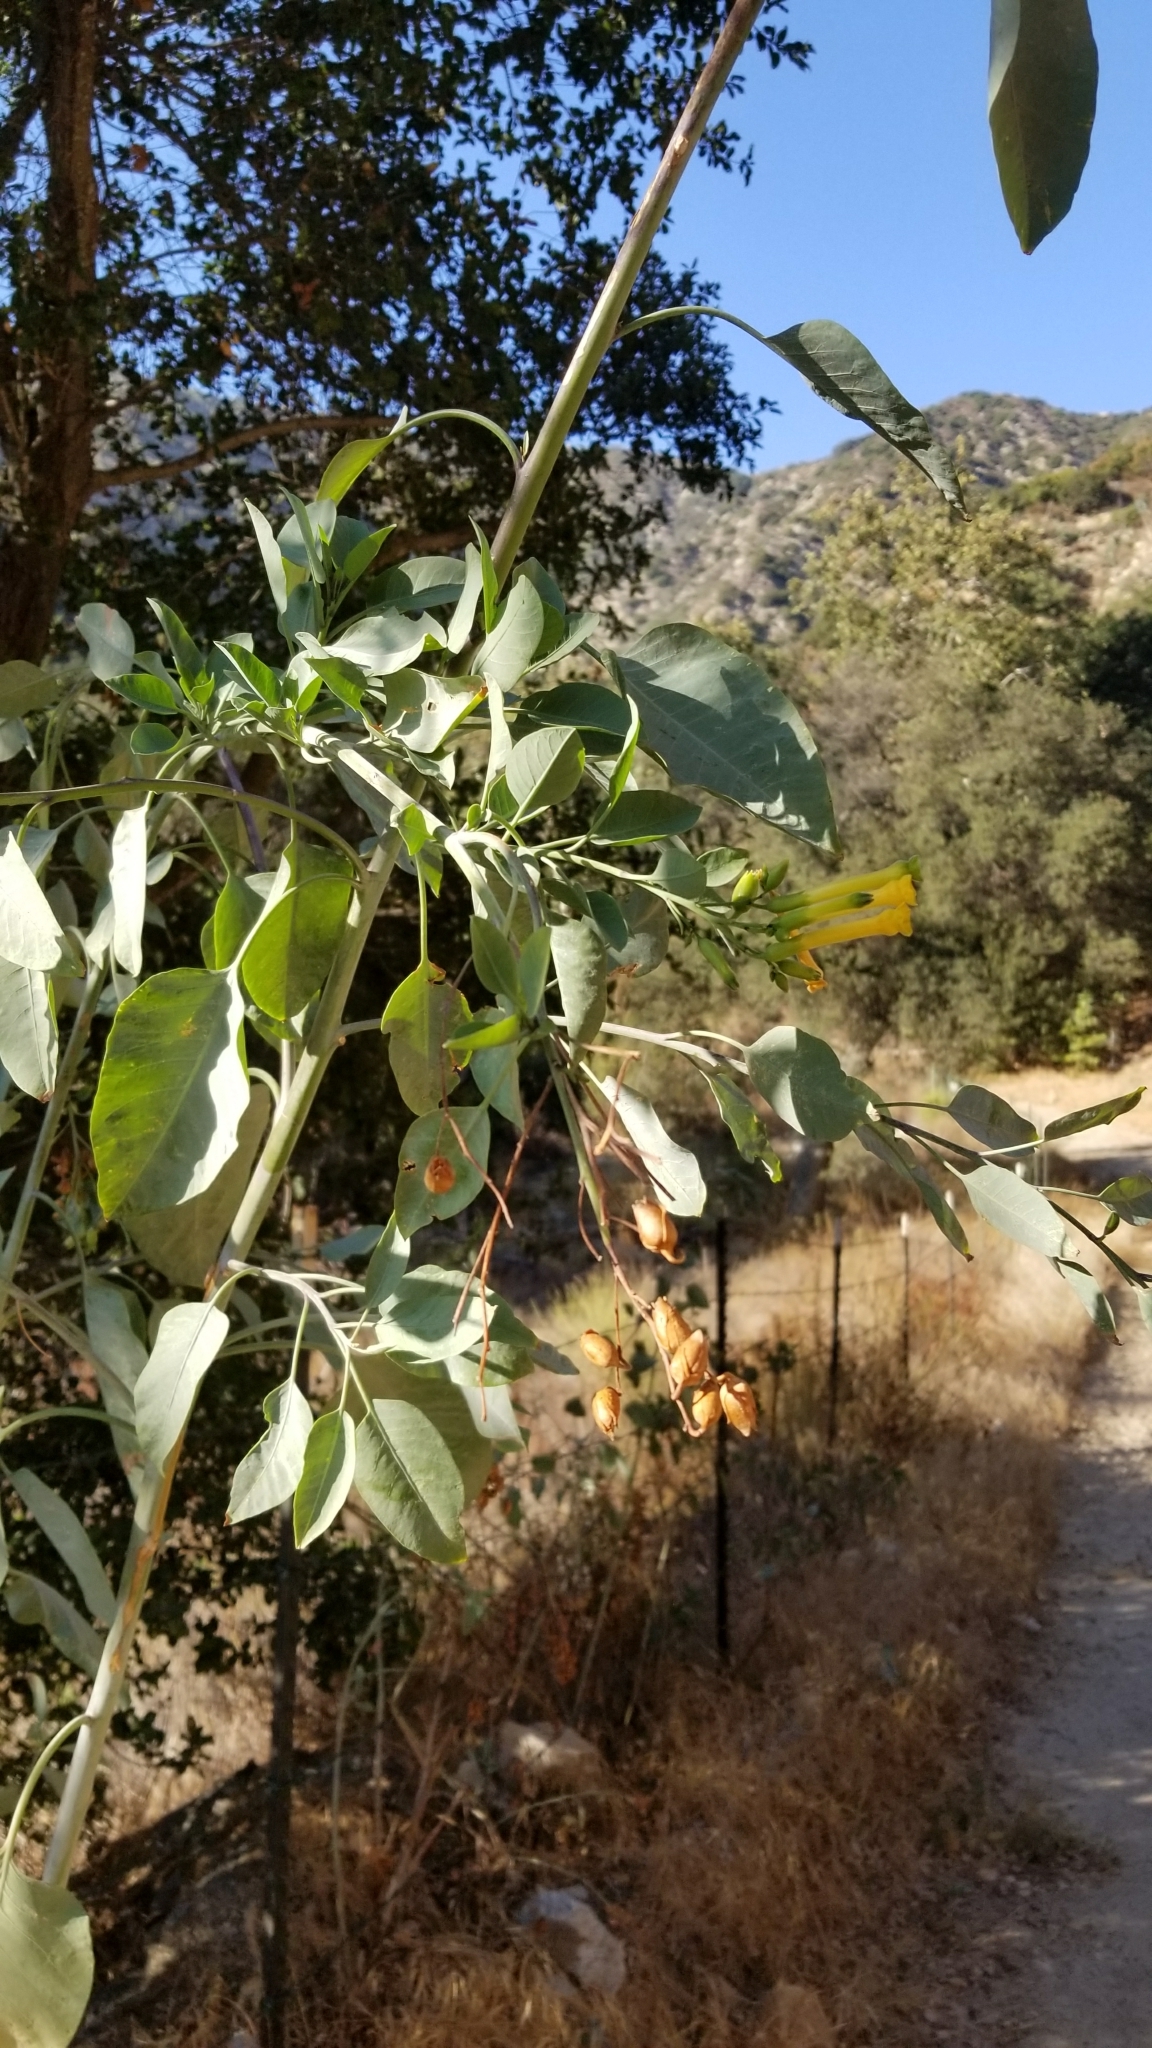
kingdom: Plantae
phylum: Tracheophyta
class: Magnoliopsida
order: Solanales
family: Solanaceae
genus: Nicotiana
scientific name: Nicotiana glauca
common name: Tree tobacco
